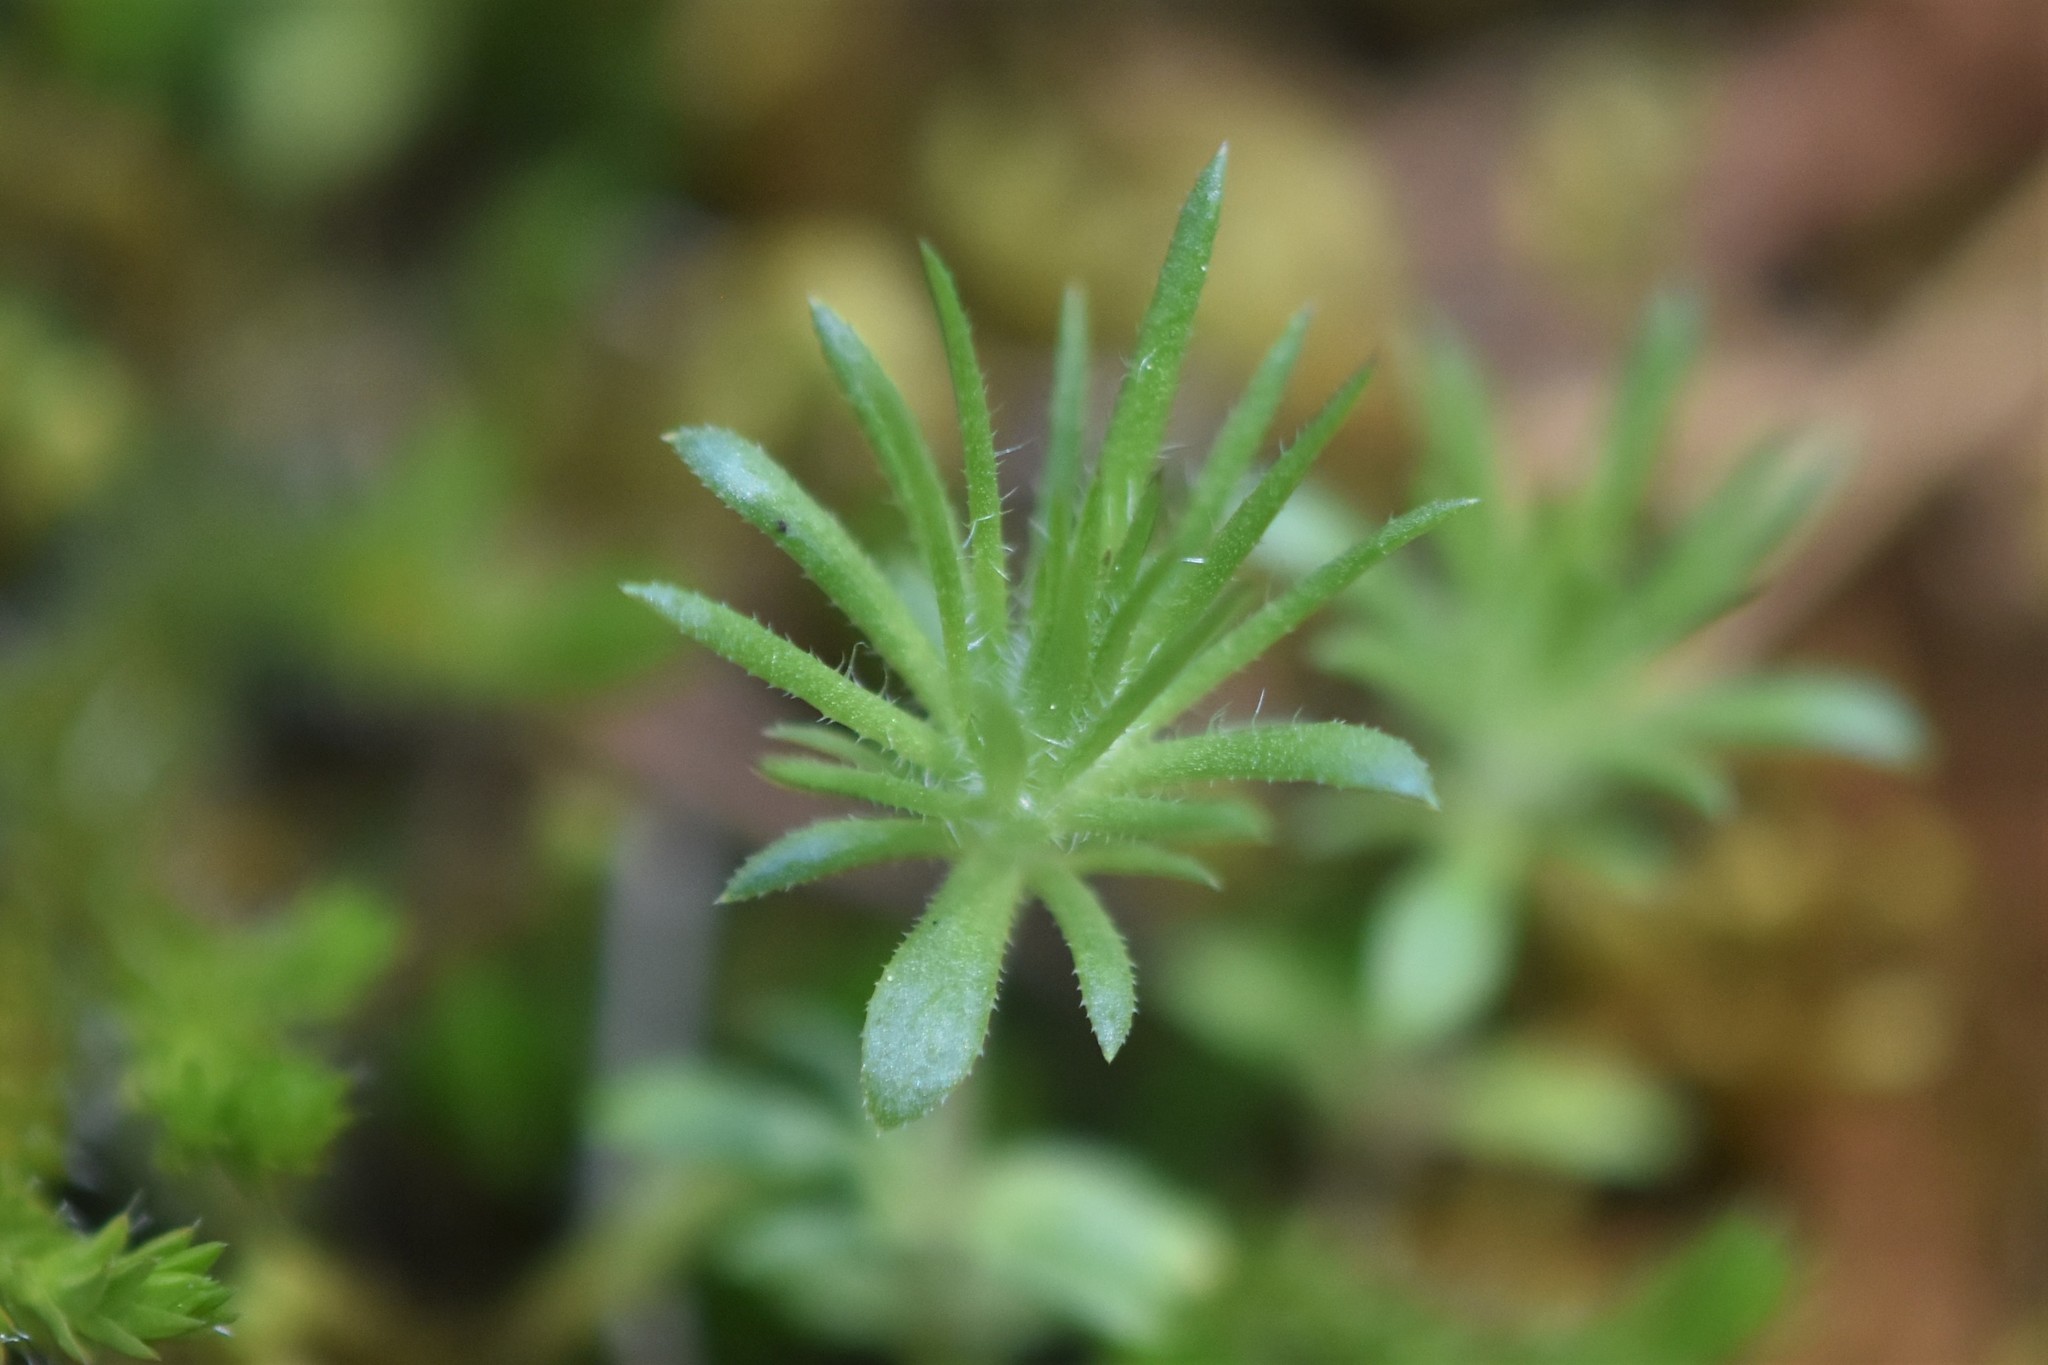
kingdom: Plantae
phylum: Tracheophyta
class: Magnoliopsida
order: Ericales
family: Polemoniaceae
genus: Leptosiphon
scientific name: Leptosiphon bicolor
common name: True babystars
